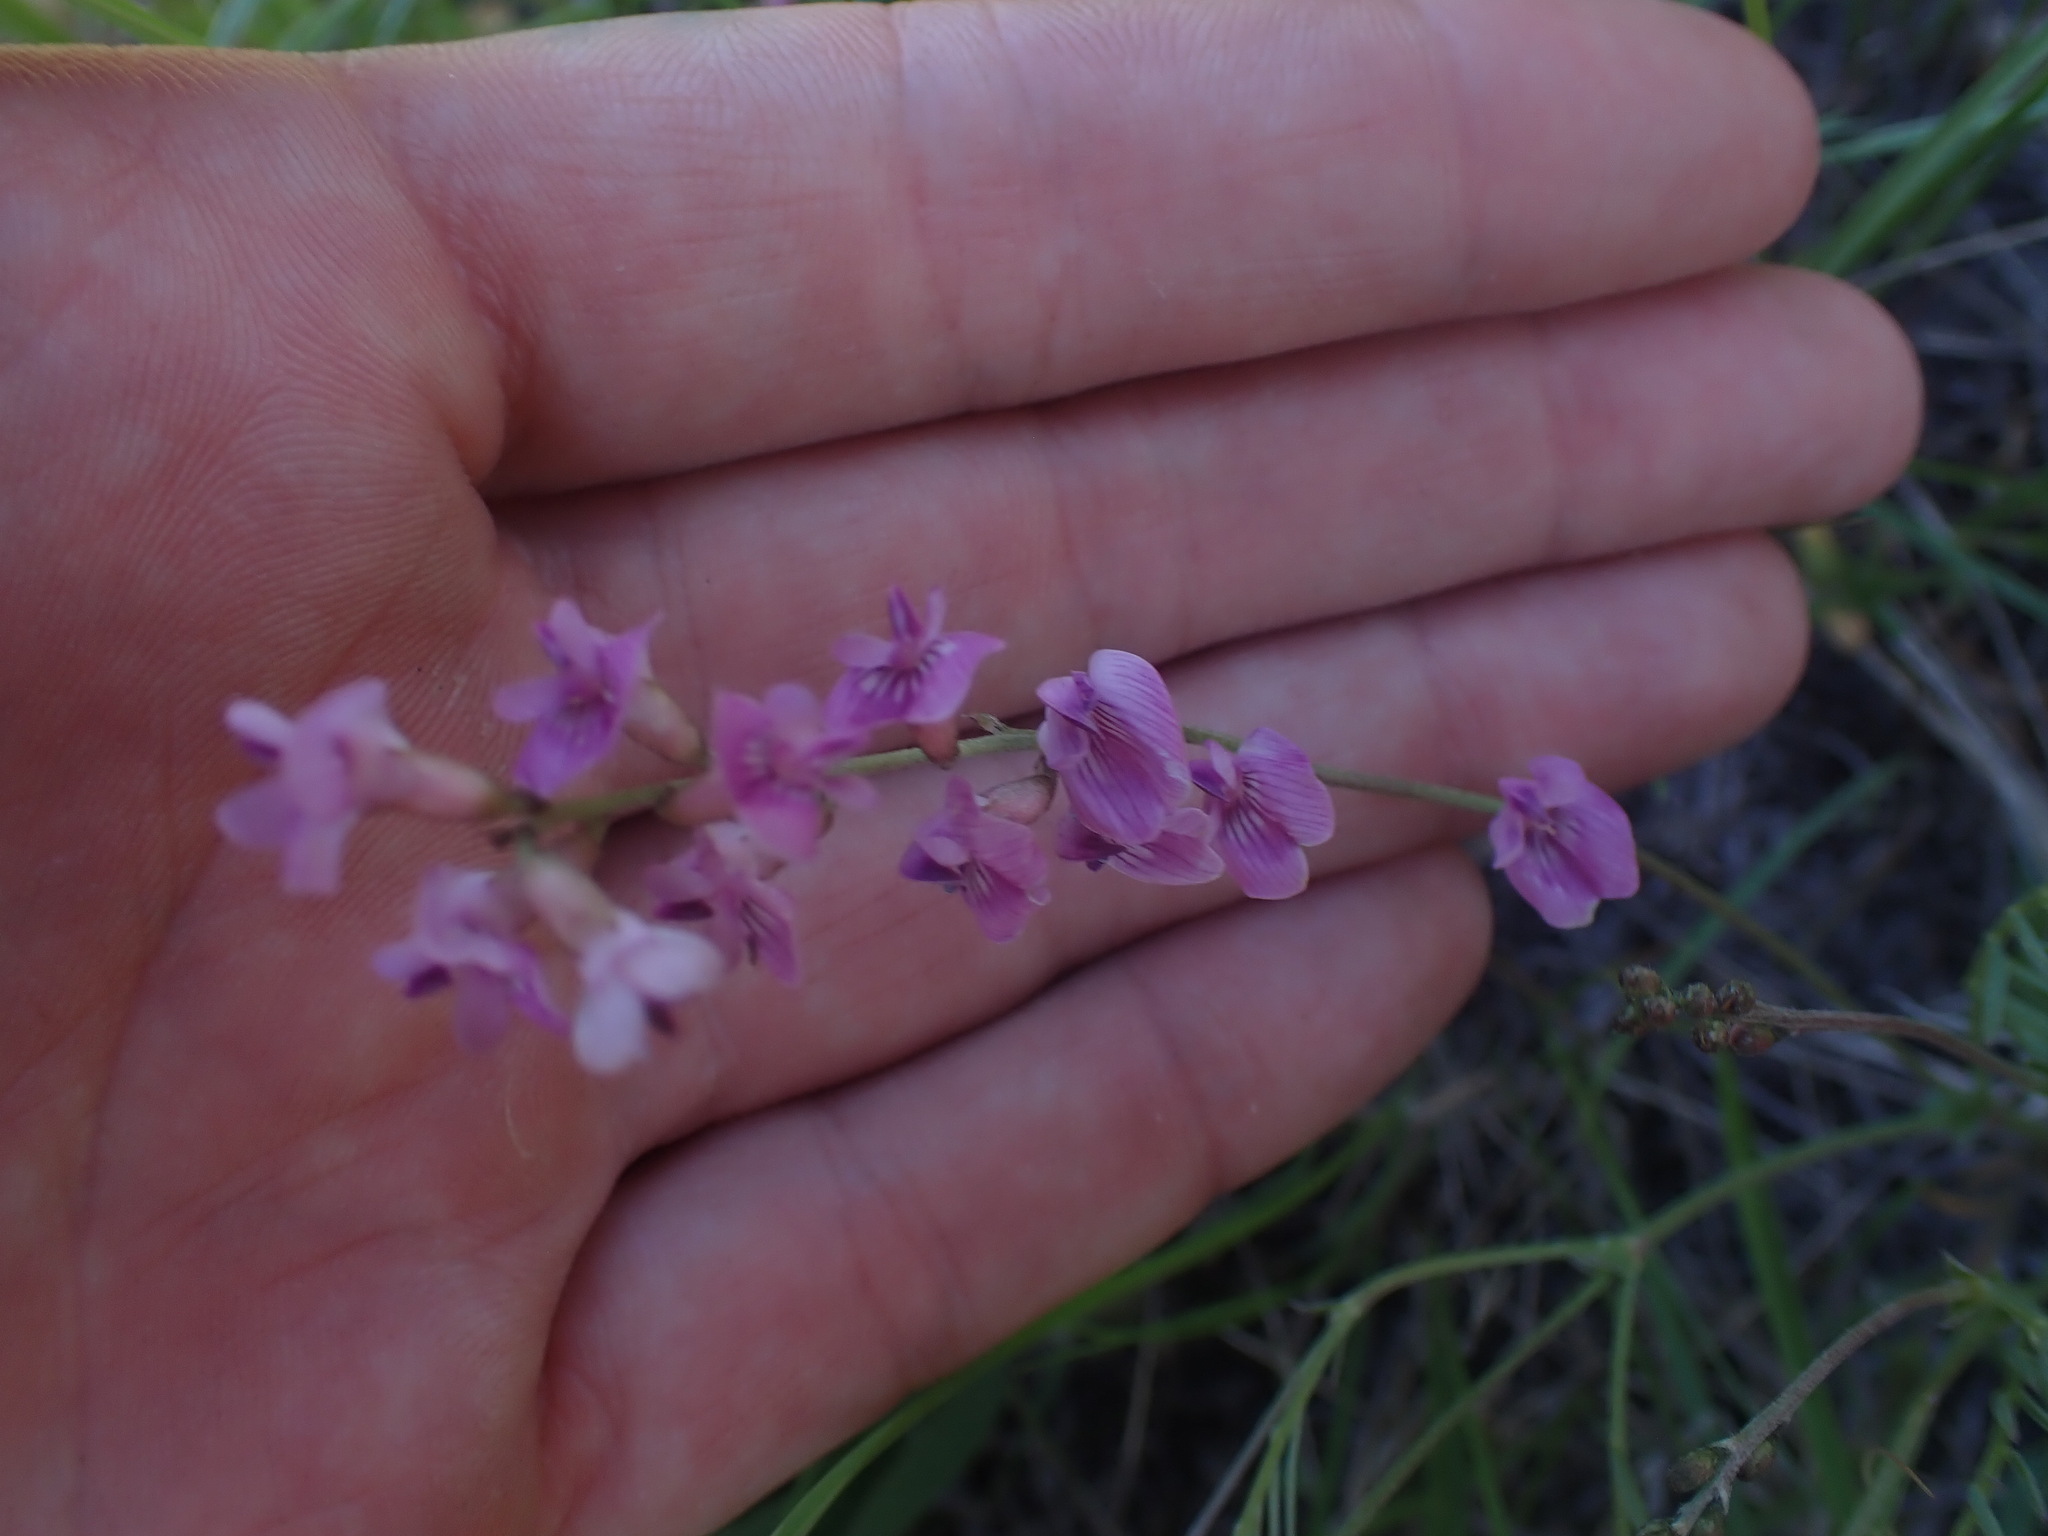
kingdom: Plantae
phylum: Tracheophyta
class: Magnoliopsida
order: Fabales
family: Fabaceae
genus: Astragalus
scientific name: Astragalus miser
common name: Timber milkvetch
